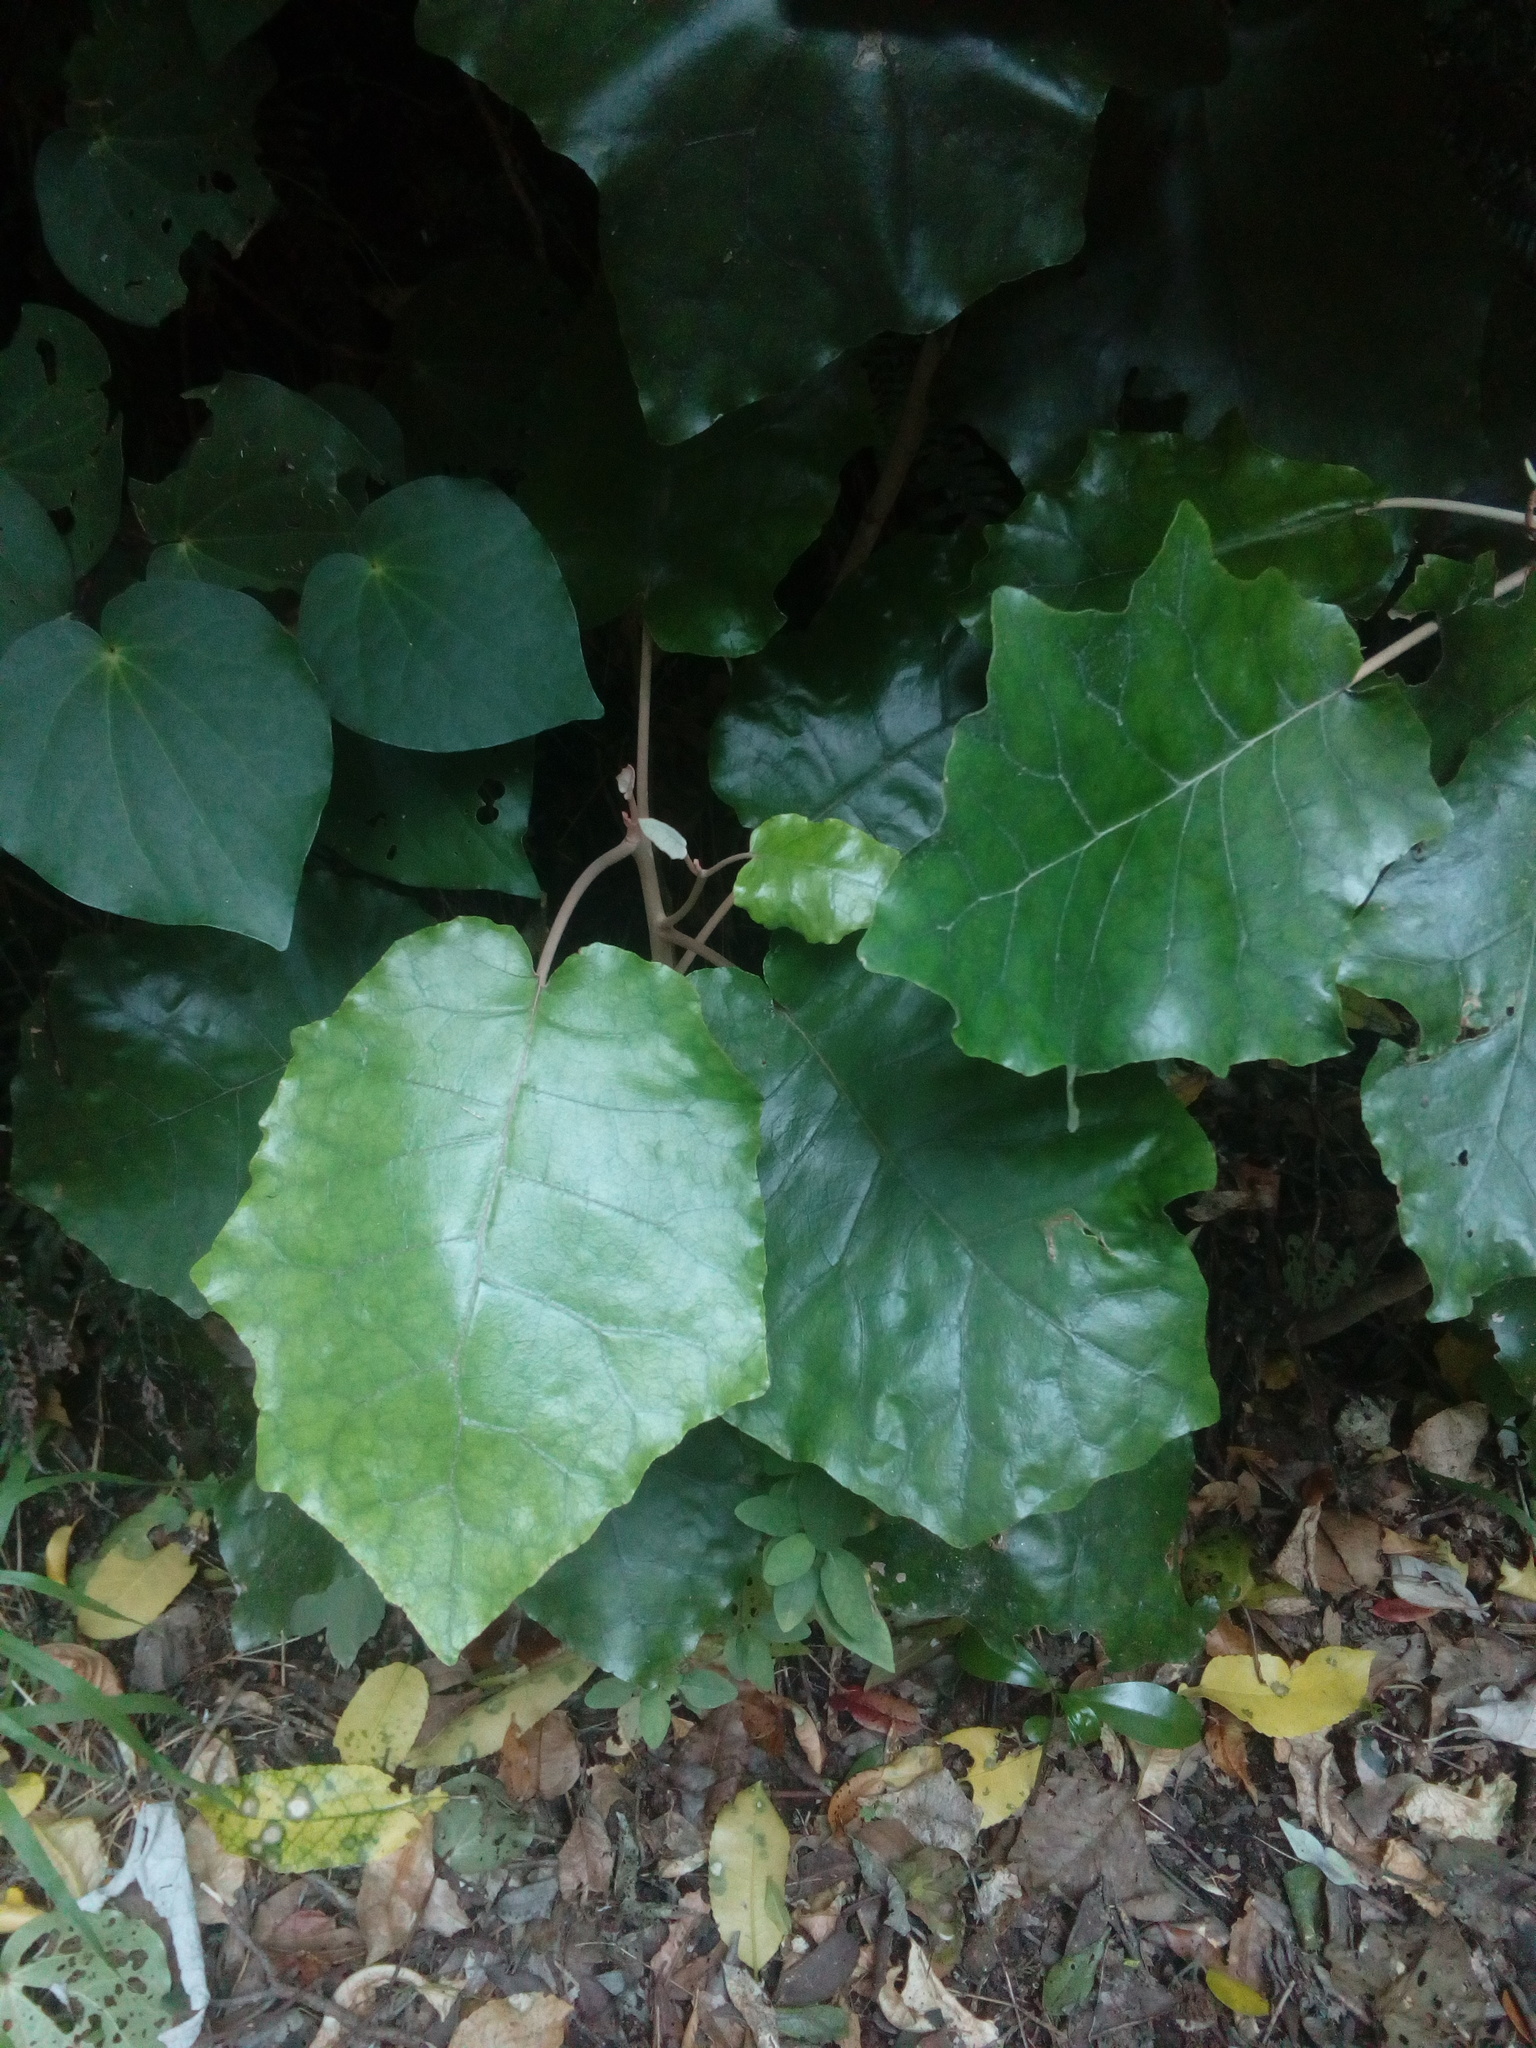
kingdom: Plantae
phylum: Tracheophyta
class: Magnoliopsida
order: Asterales
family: Asteraceae
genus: Brachyglottis
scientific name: Brachyglottis repanda
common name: Hedge ragwort
